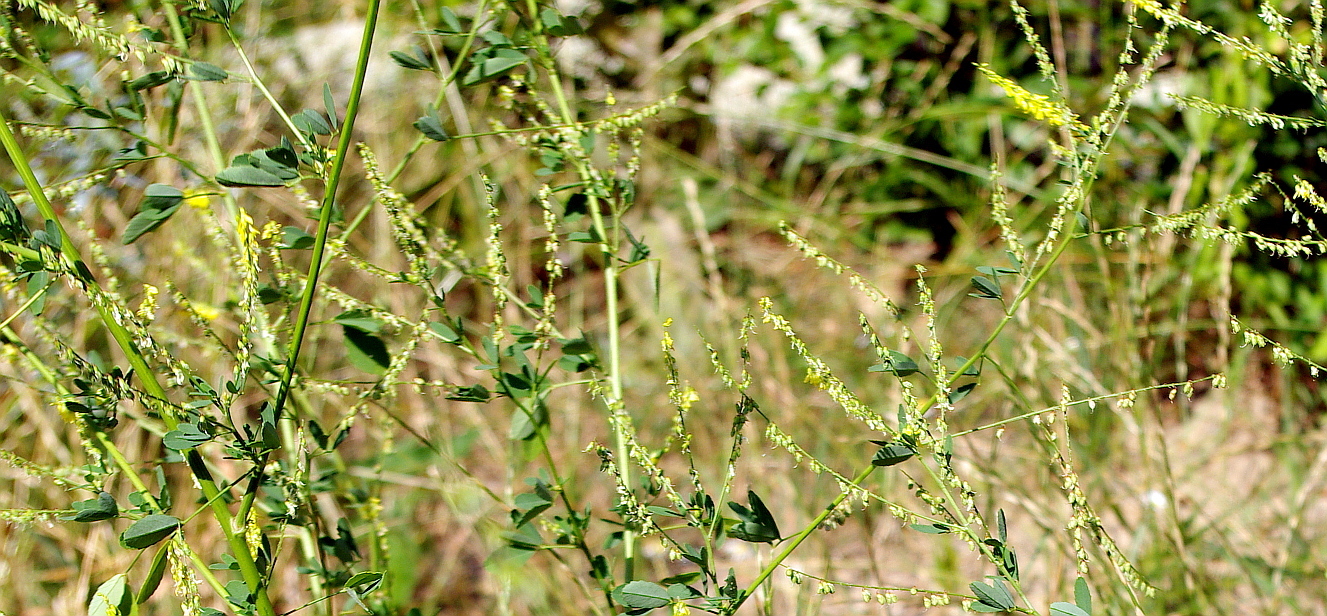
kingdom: Plantae
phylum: Tracheophyta
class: Magnoliopsida
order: Fabales
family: Fabaceae
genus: Melilotus
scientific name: Melilotus officinalis
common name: Sweetclover
